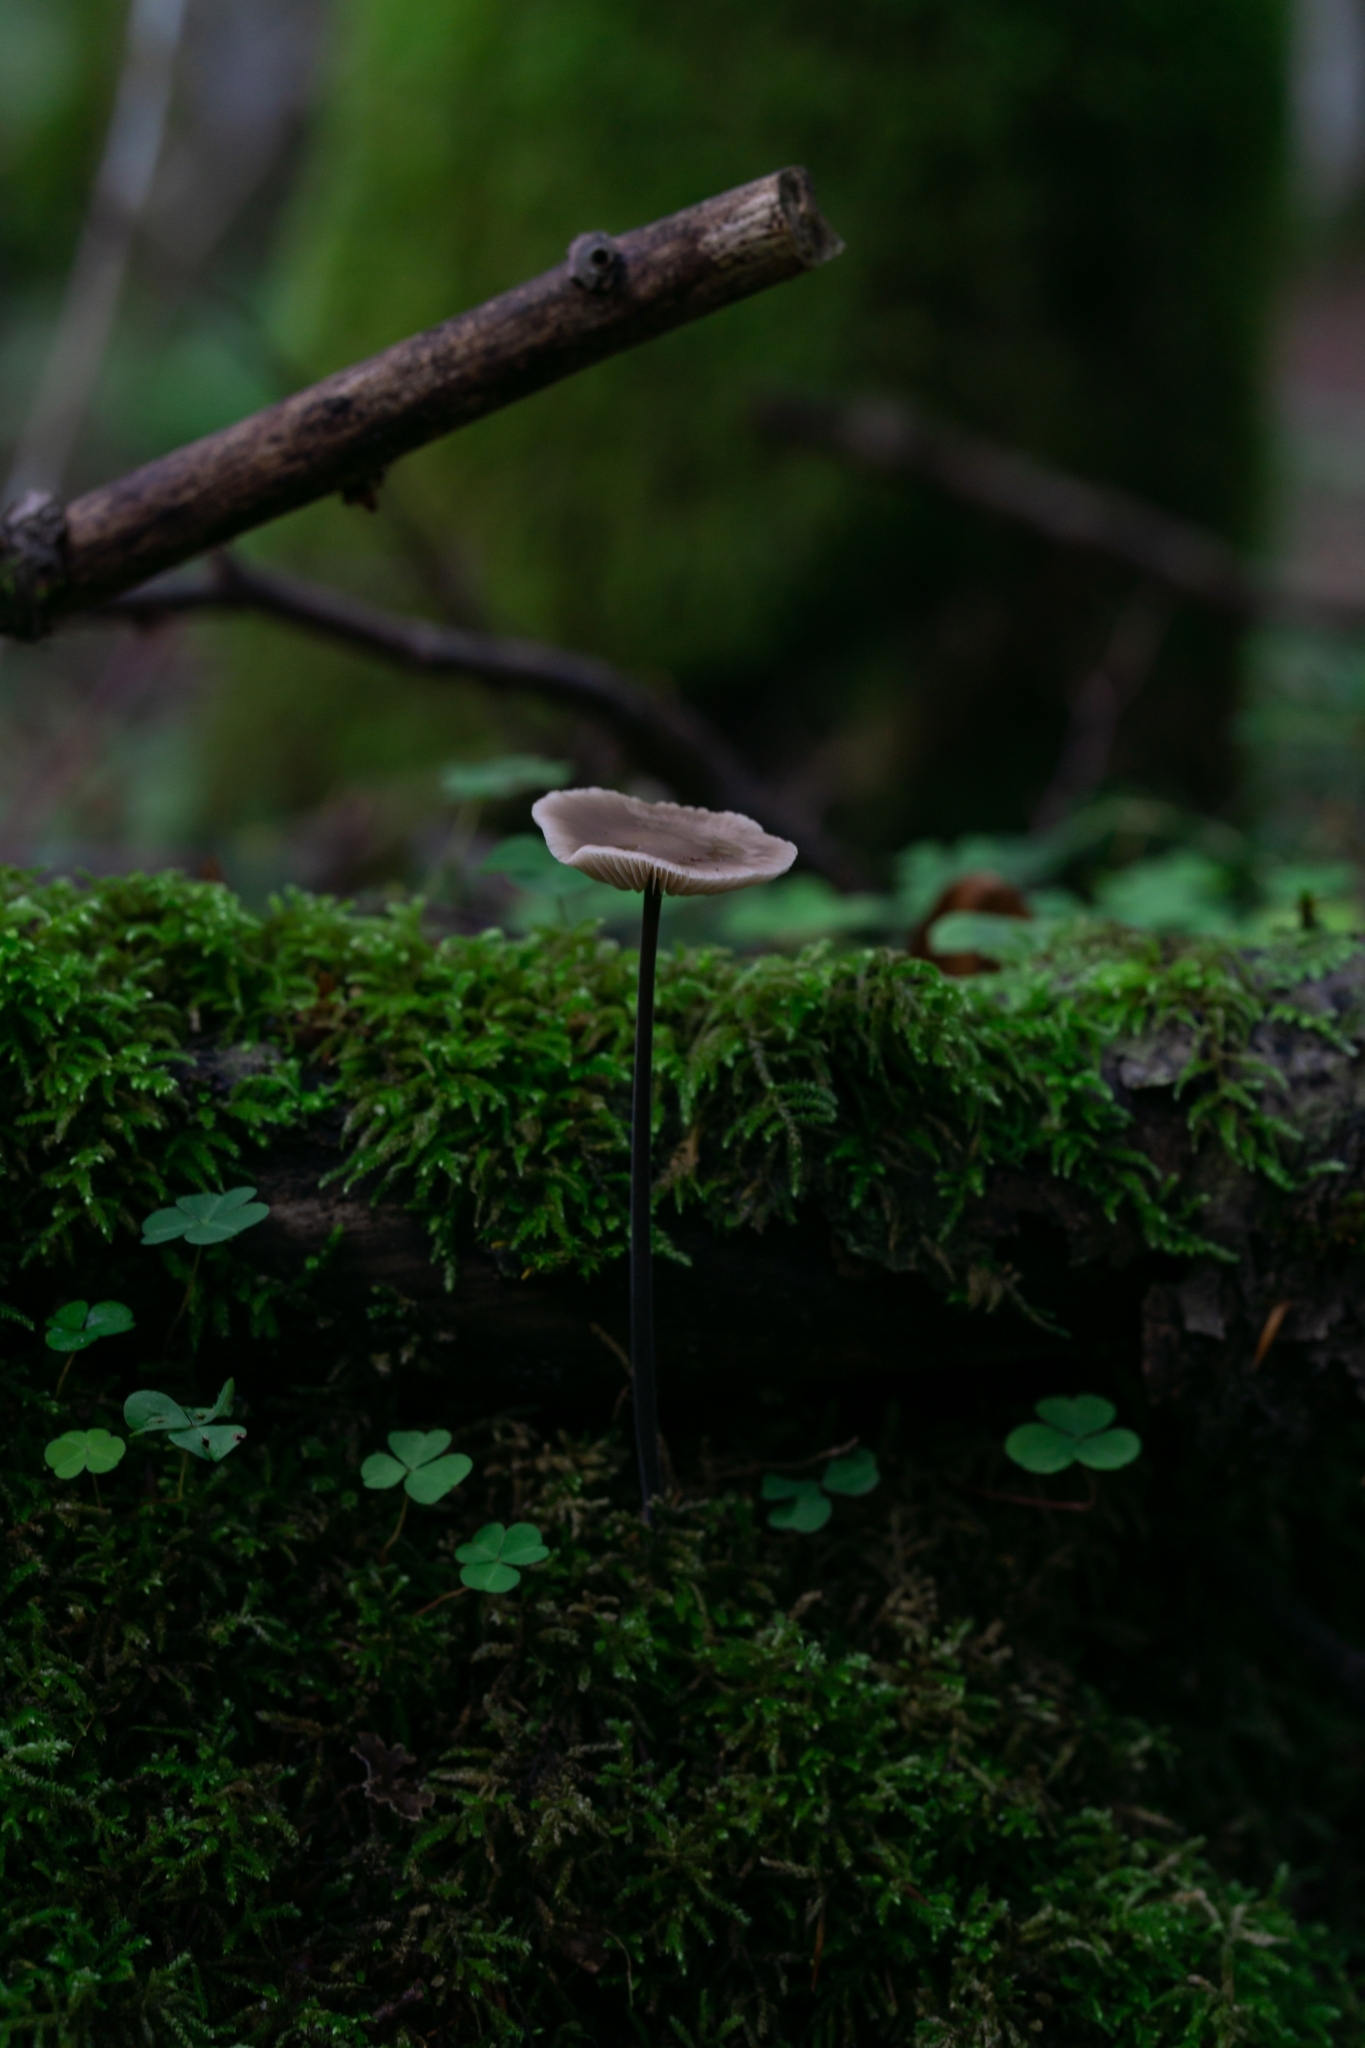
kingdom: Fungi
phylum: Basidiomycota
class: Agaricomycetes
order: Agaricales
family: Omphalotaceae
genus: Mycetinis
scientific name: Mycetinis alliaceus
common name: Garlic parachute
